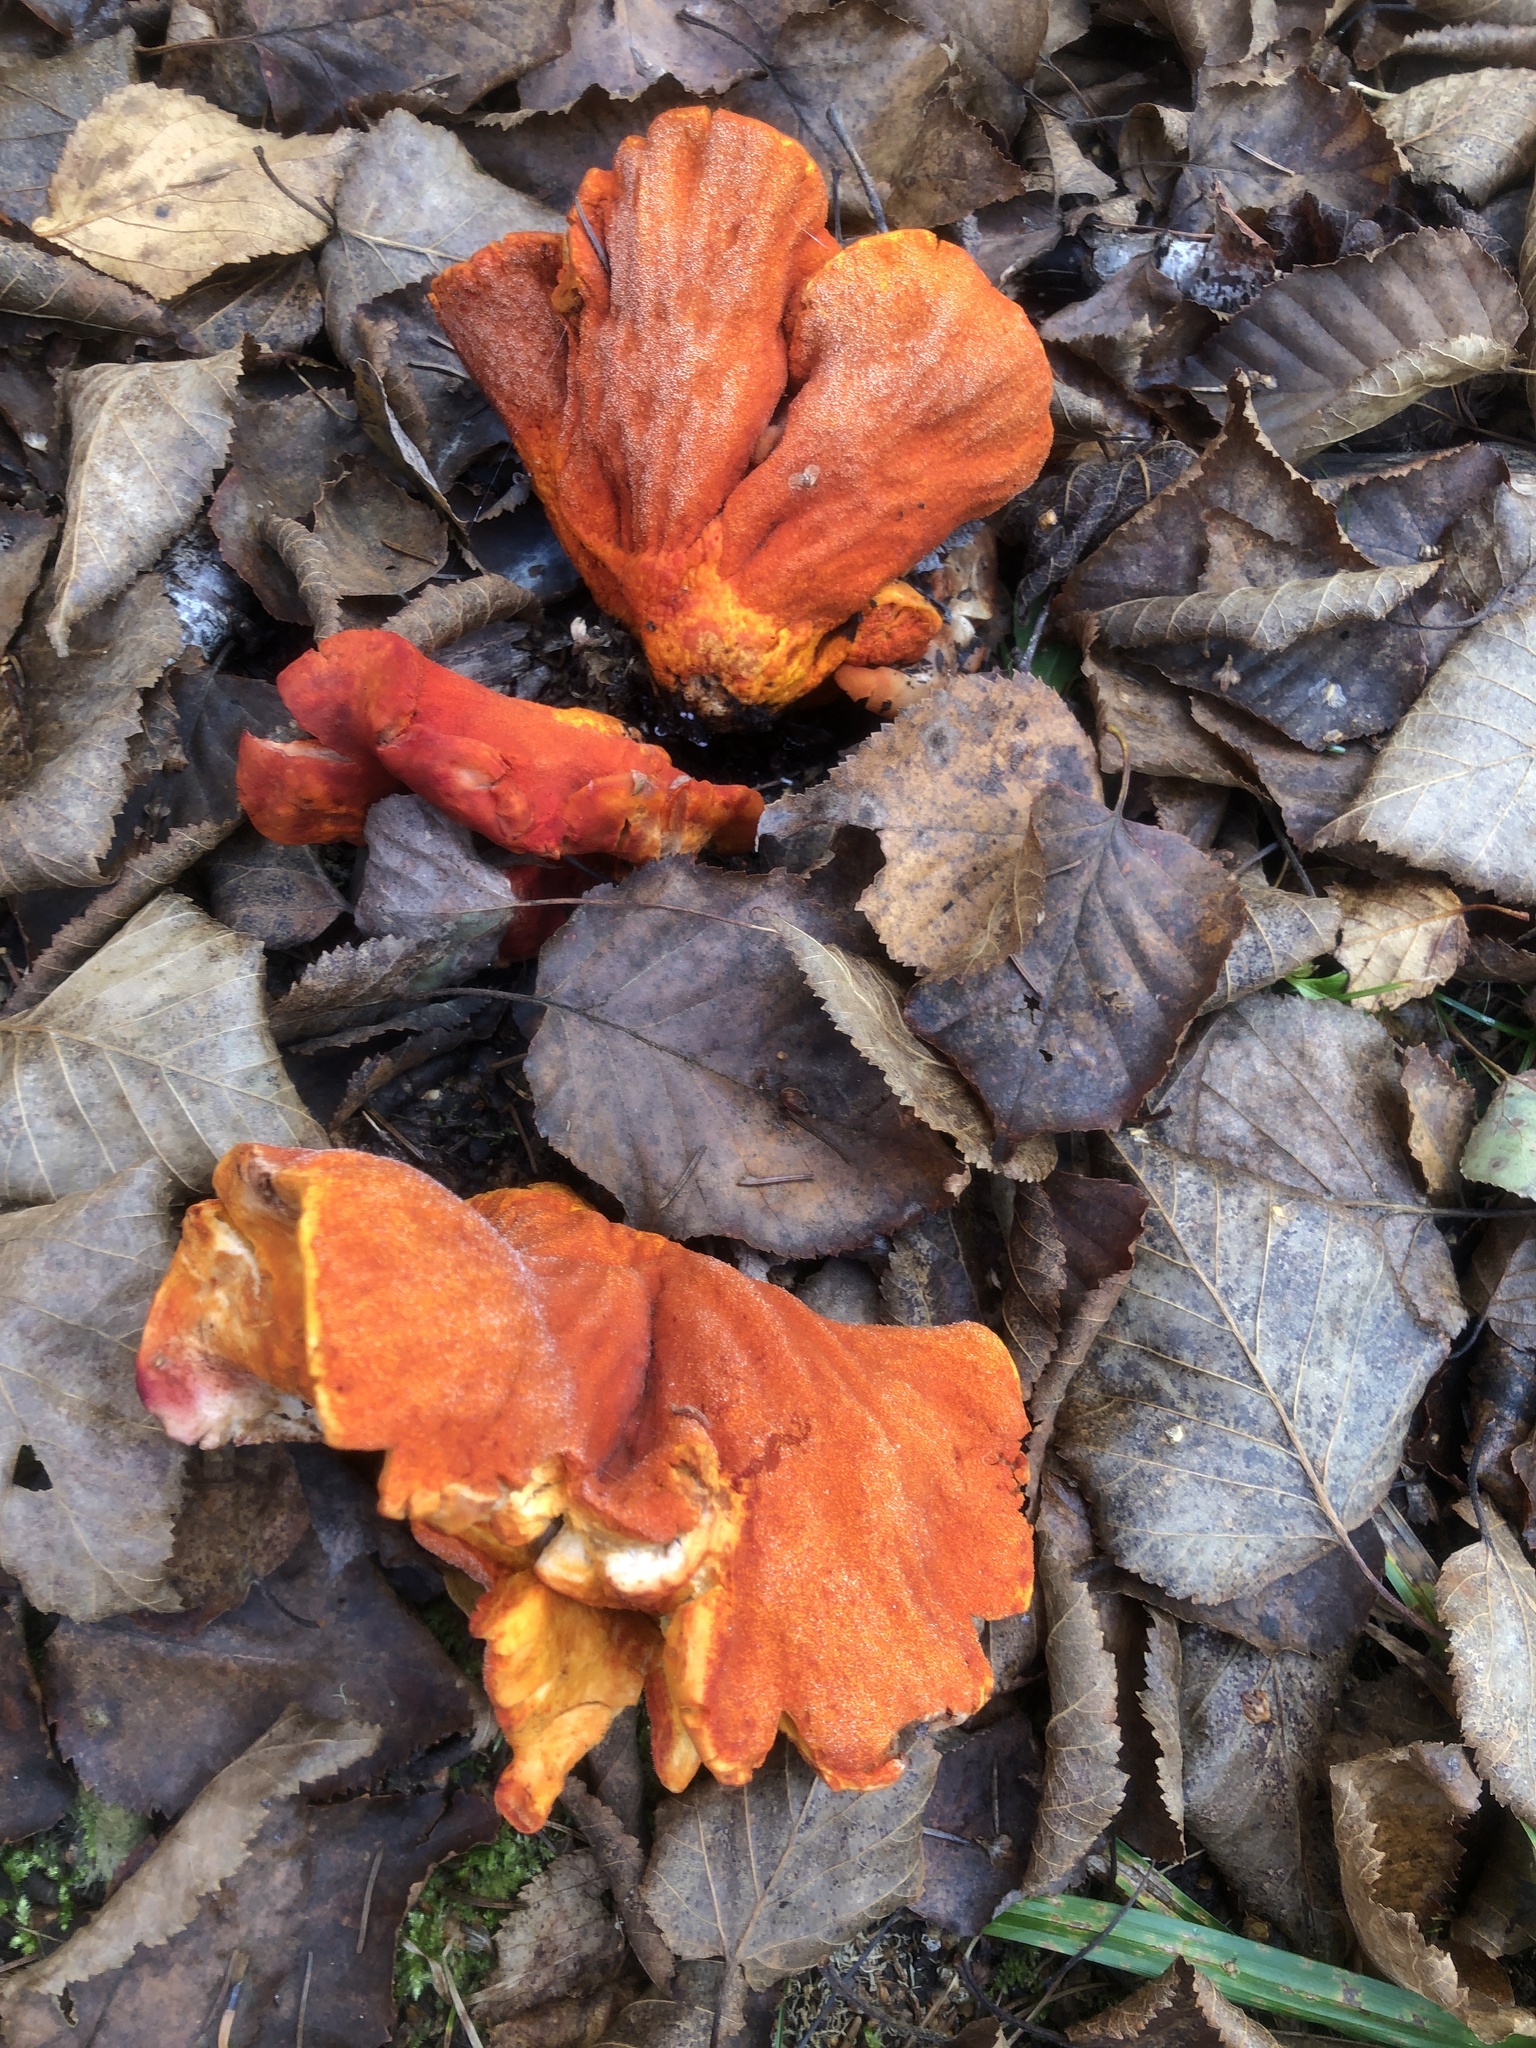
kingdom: Fungi
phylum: Ascomycota
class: Sordariomycetes
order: Hypocreales
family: Hypocreaceae
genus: Hypomyces
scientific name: Hypomyces lactifluorum
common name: Lobster mushroom
